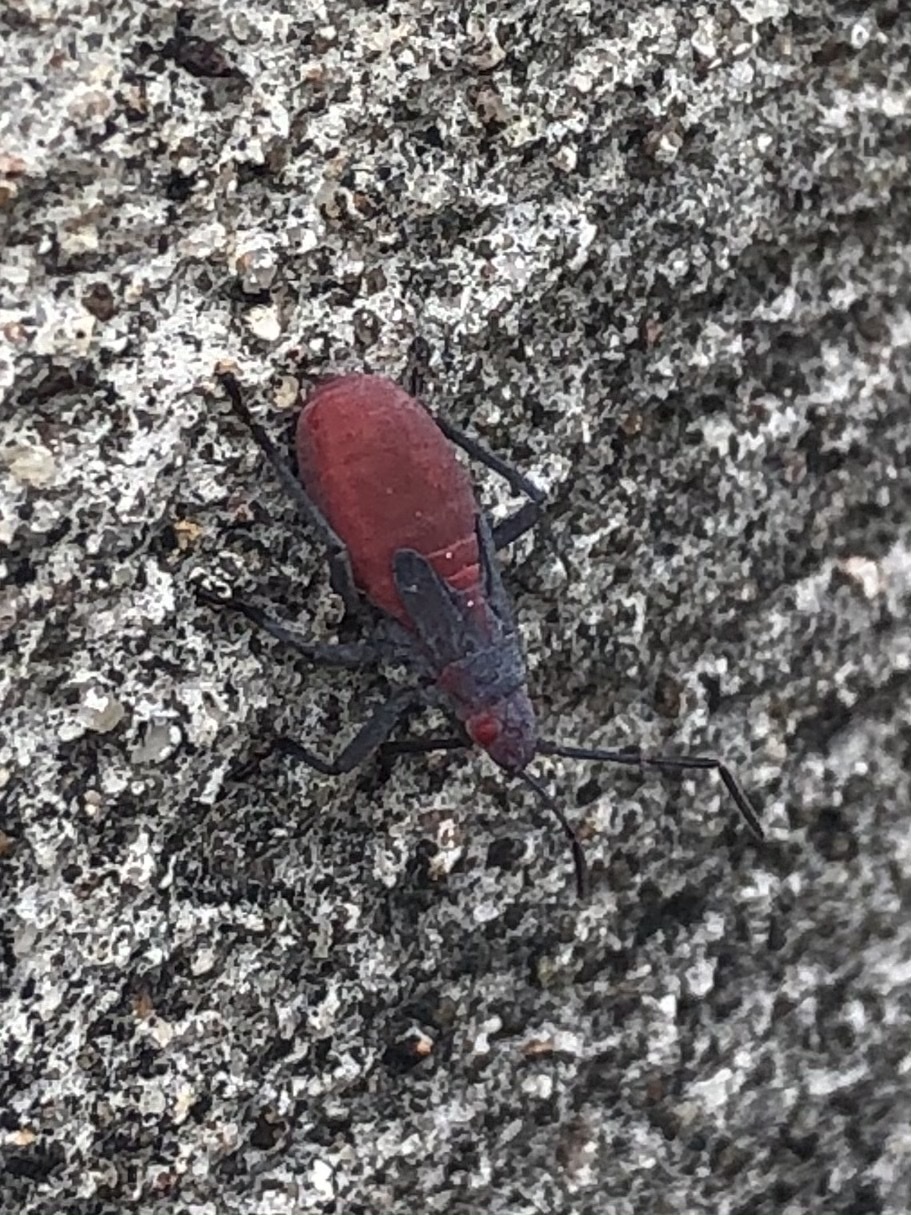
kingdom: Animalia
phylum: Arthropoda
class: Insecta
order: Hemiptera
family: Rhopalidae
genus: Jadera
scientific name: Jadera haematoloma
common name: Red-shouldered bug
